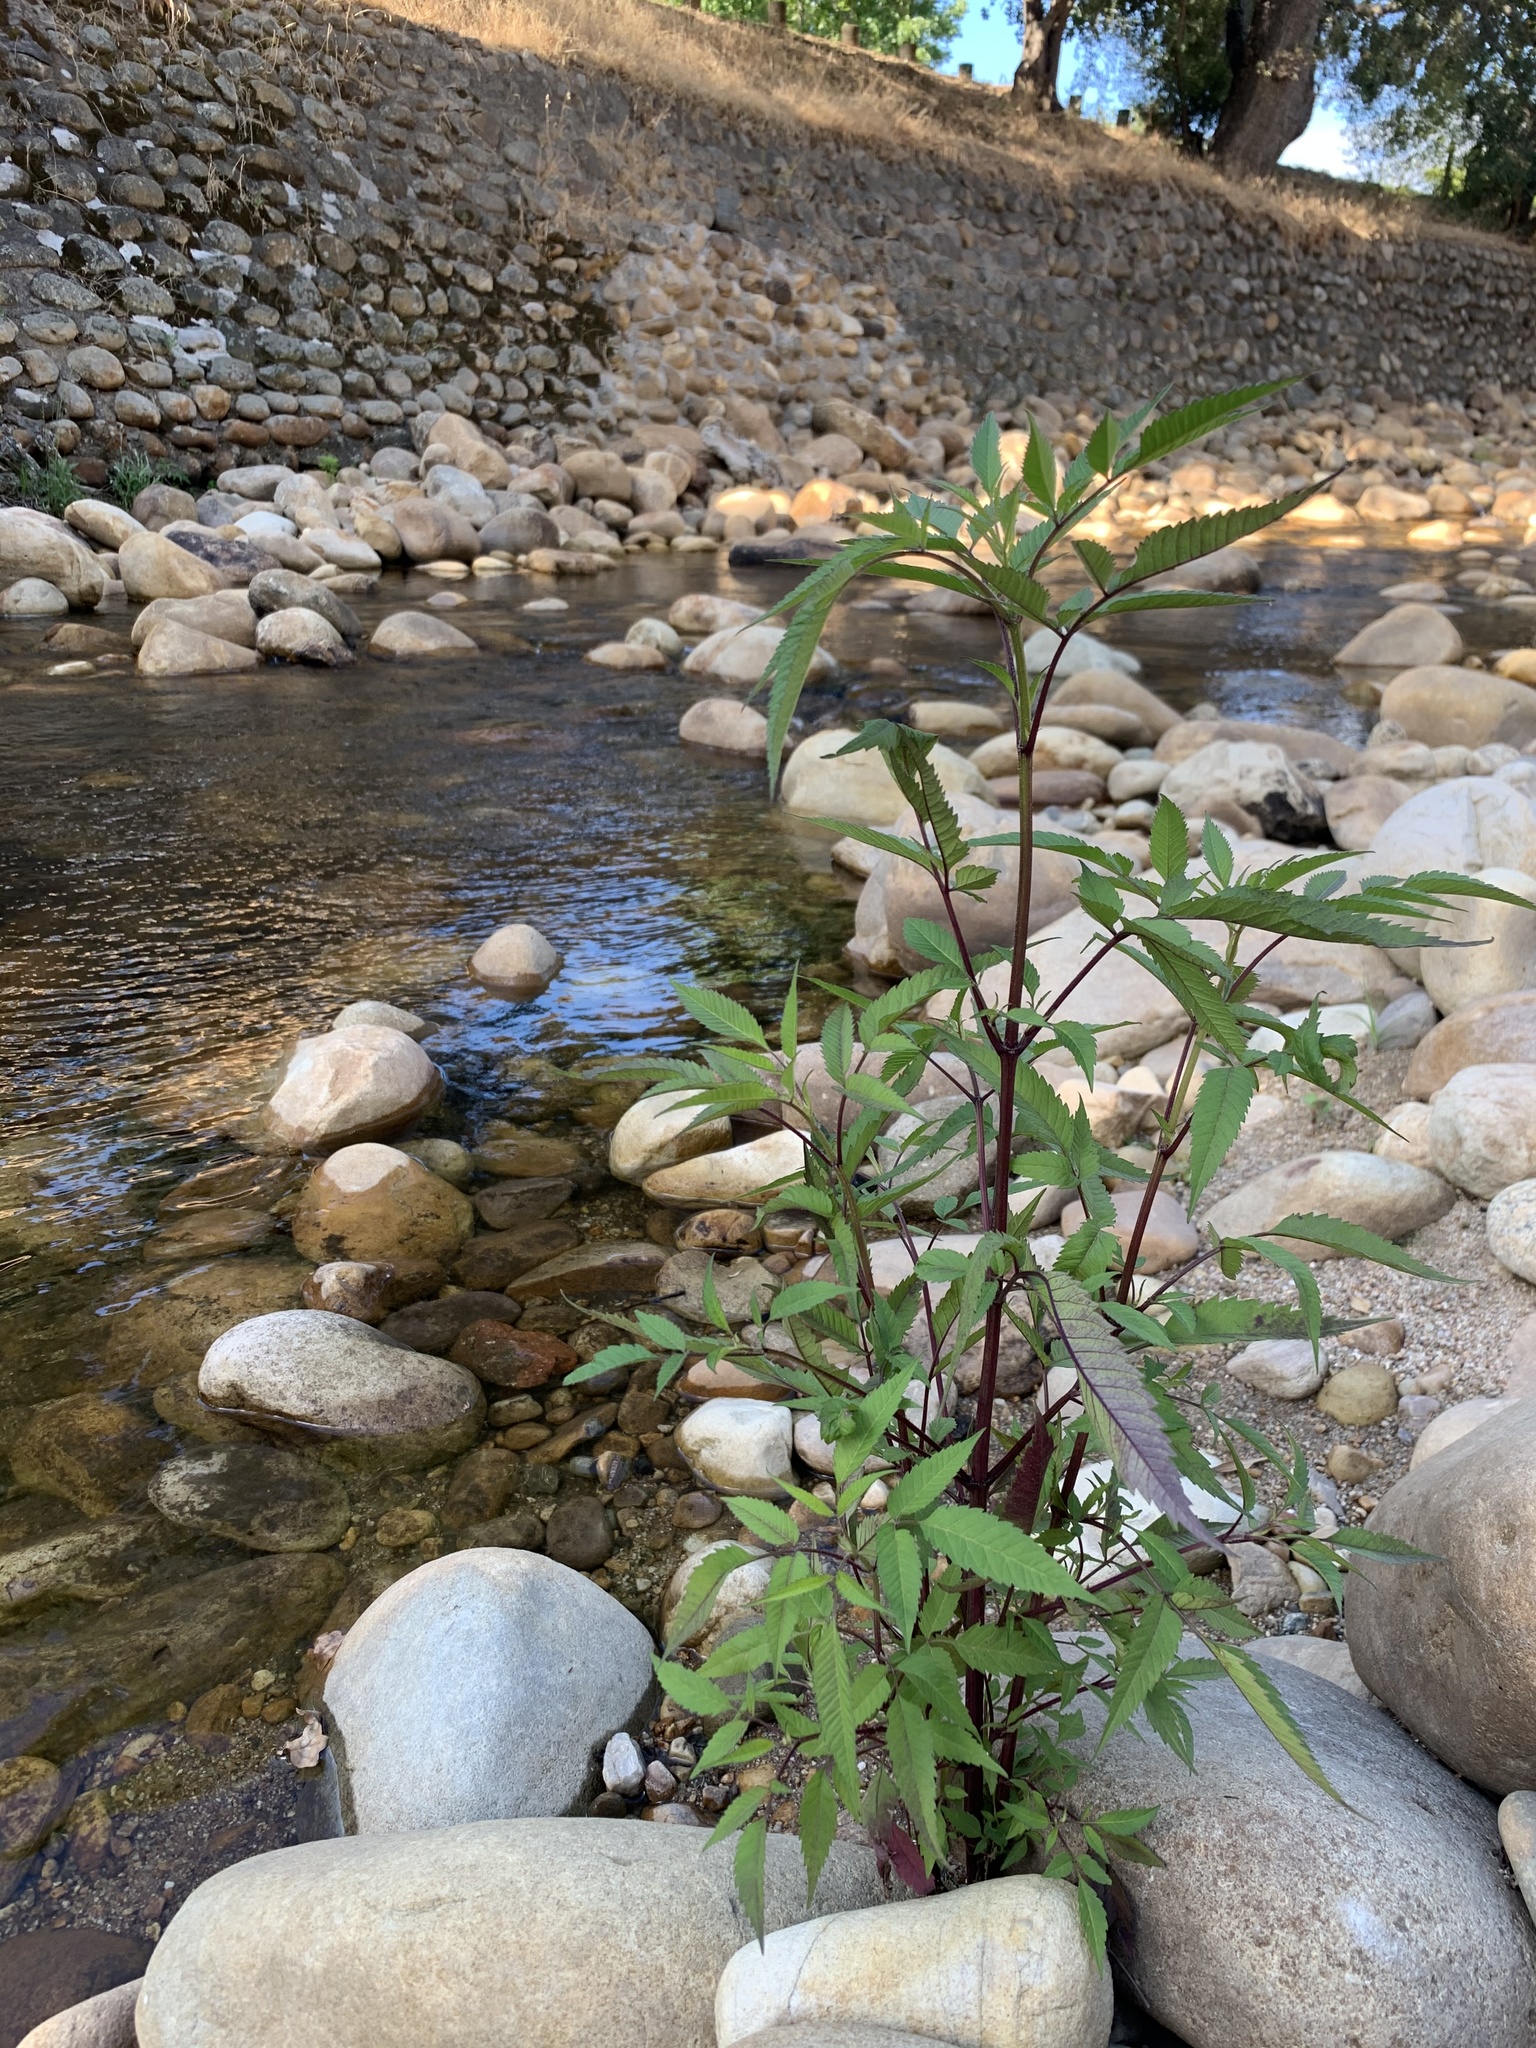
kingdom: Plantae
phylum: Tracheophyta
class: Magnoliopsida
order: Asterales
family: Asteraceae
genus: Bidens
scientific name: Bidens frondosa
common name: Beggarticks
